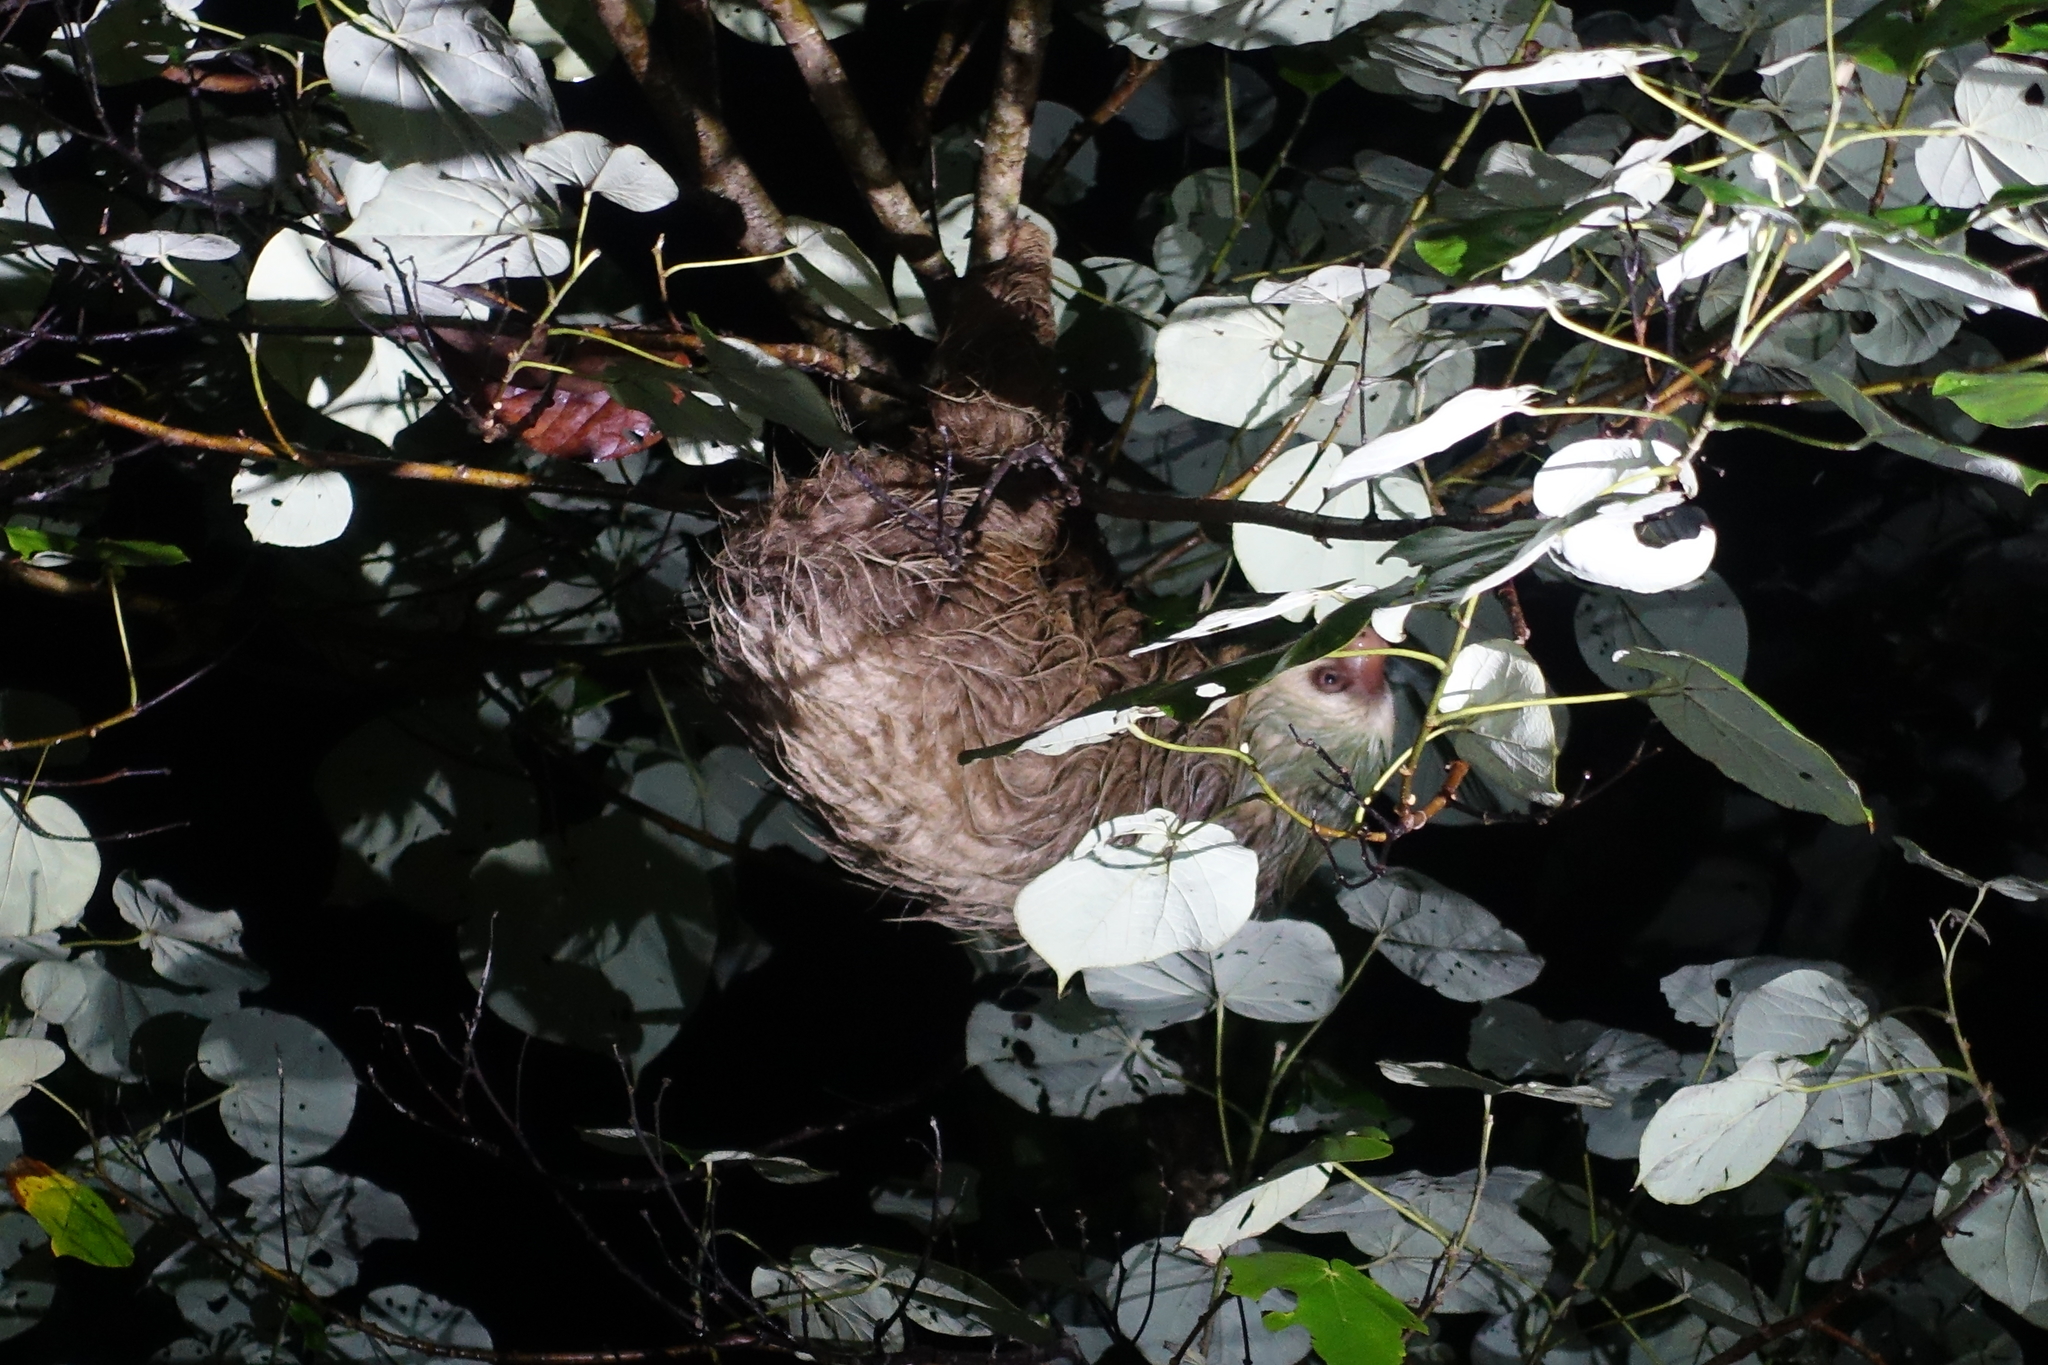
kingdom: Animalia
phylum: Chordata
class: Mammalia
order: Pilosa
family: Megalonychidae
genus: Choloepus
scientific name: Choloepus hoffmanni
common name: Hoffmann's two-toed sloth
